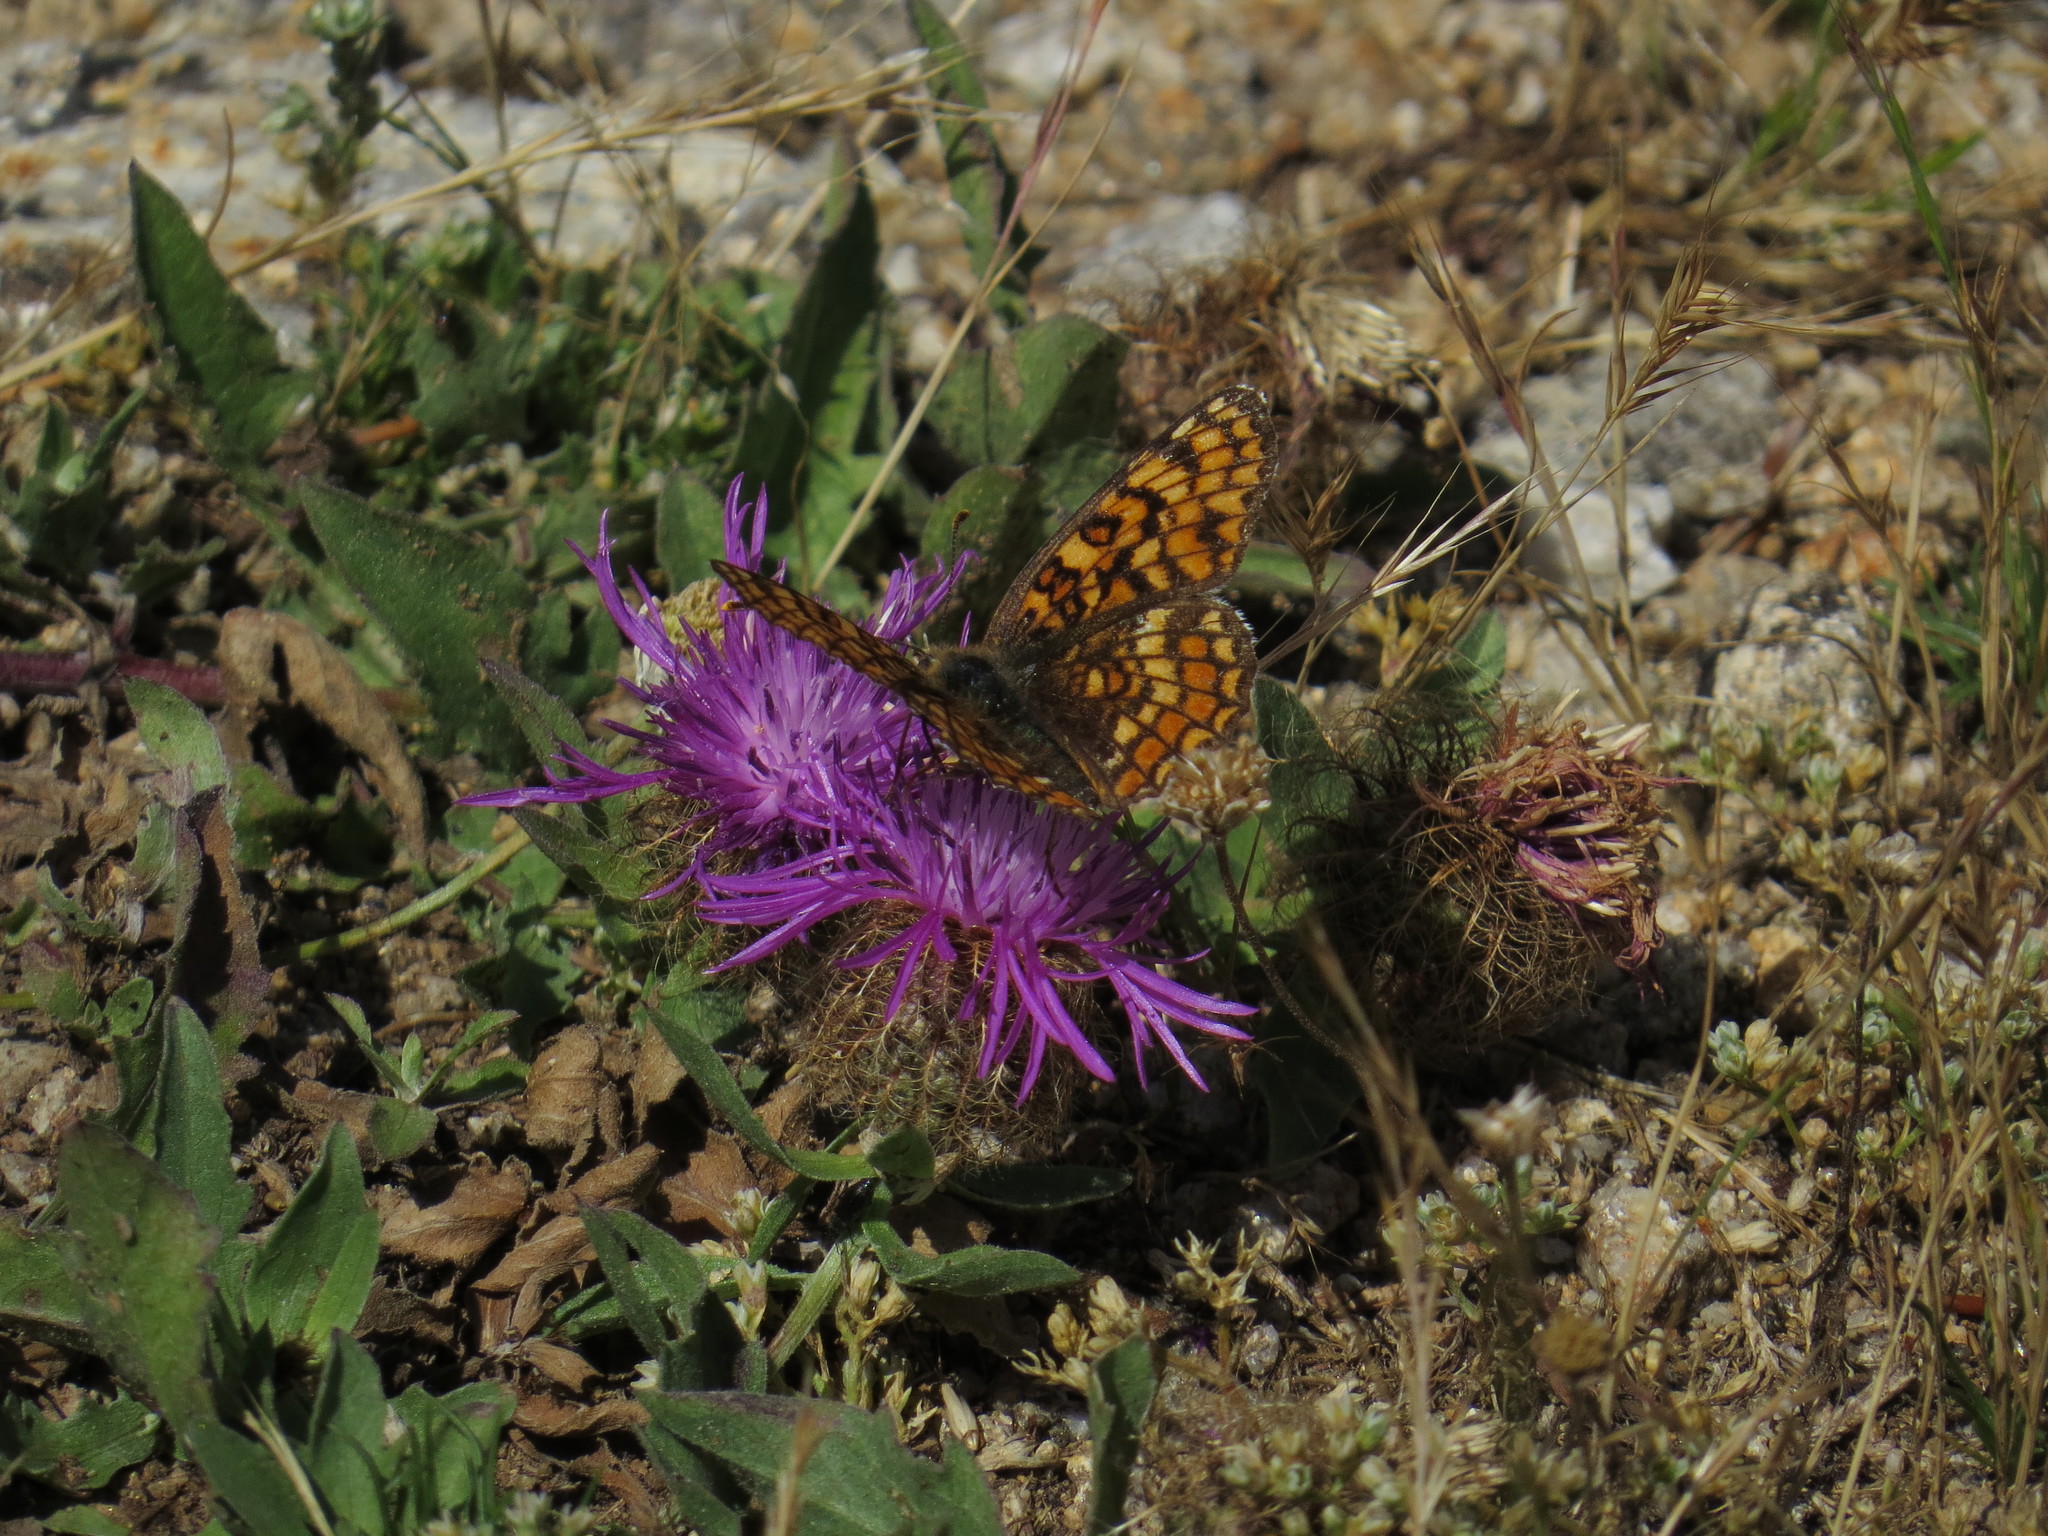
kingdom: Animalia
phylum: Arthropoda
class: Insecta
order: Lepidoptera
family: Nymphalidae
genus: Melitaea
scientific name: Melitaea phoebe
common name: Knapweed fritillary
